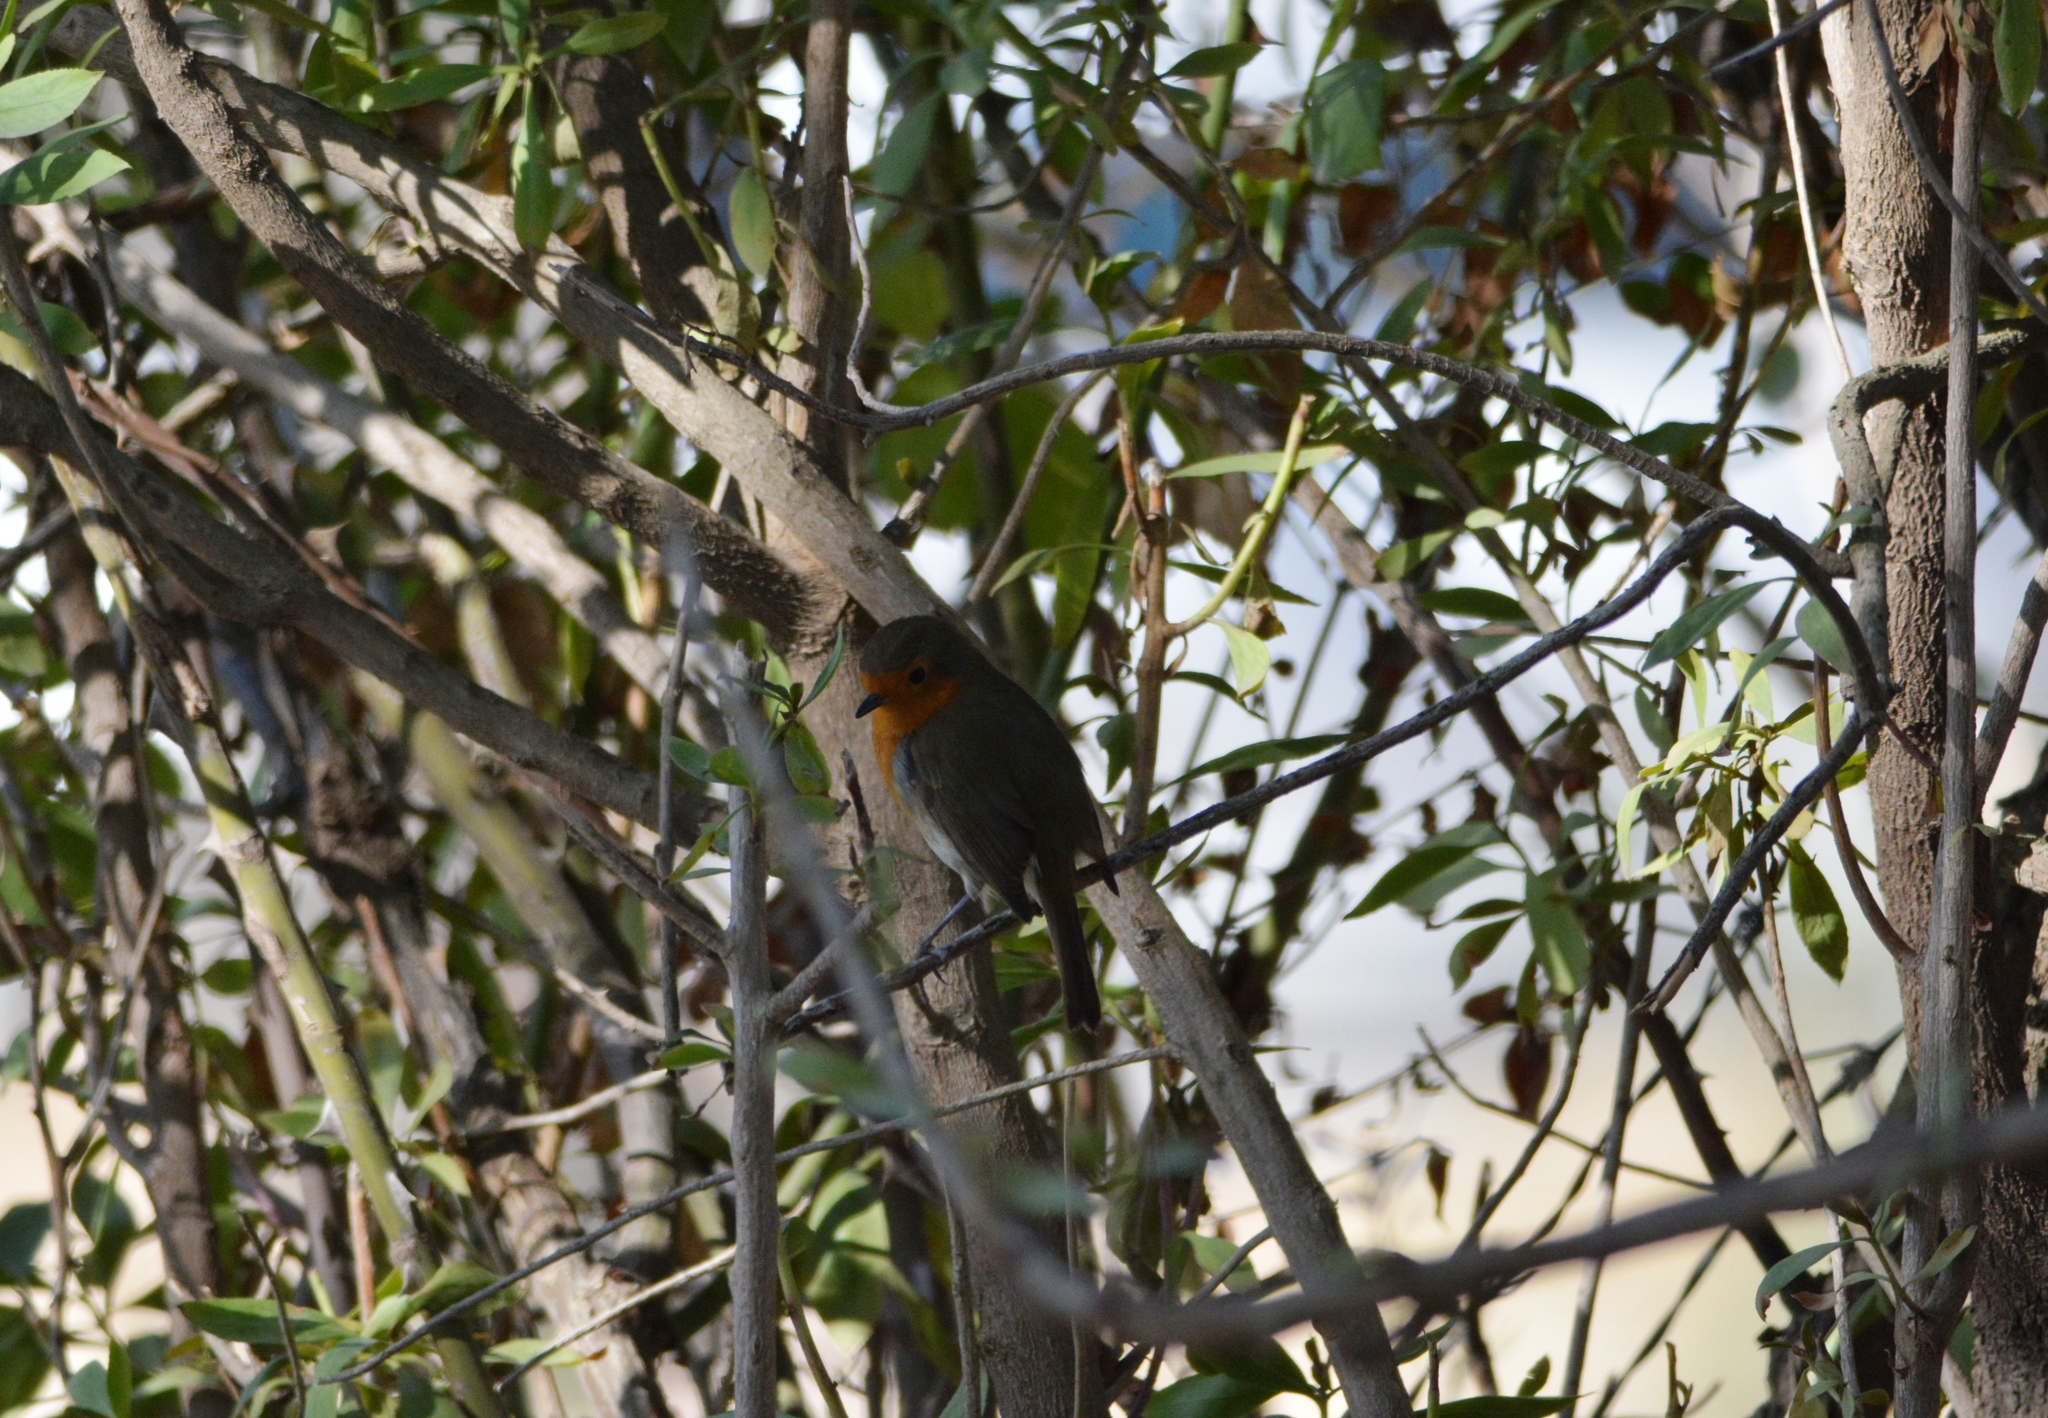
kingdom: Animalia
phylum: Chordata
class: Aves
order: Passeriformes
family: Muscicapidae
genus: Erithacus
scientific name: Erithacus rubecula
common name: European robin
